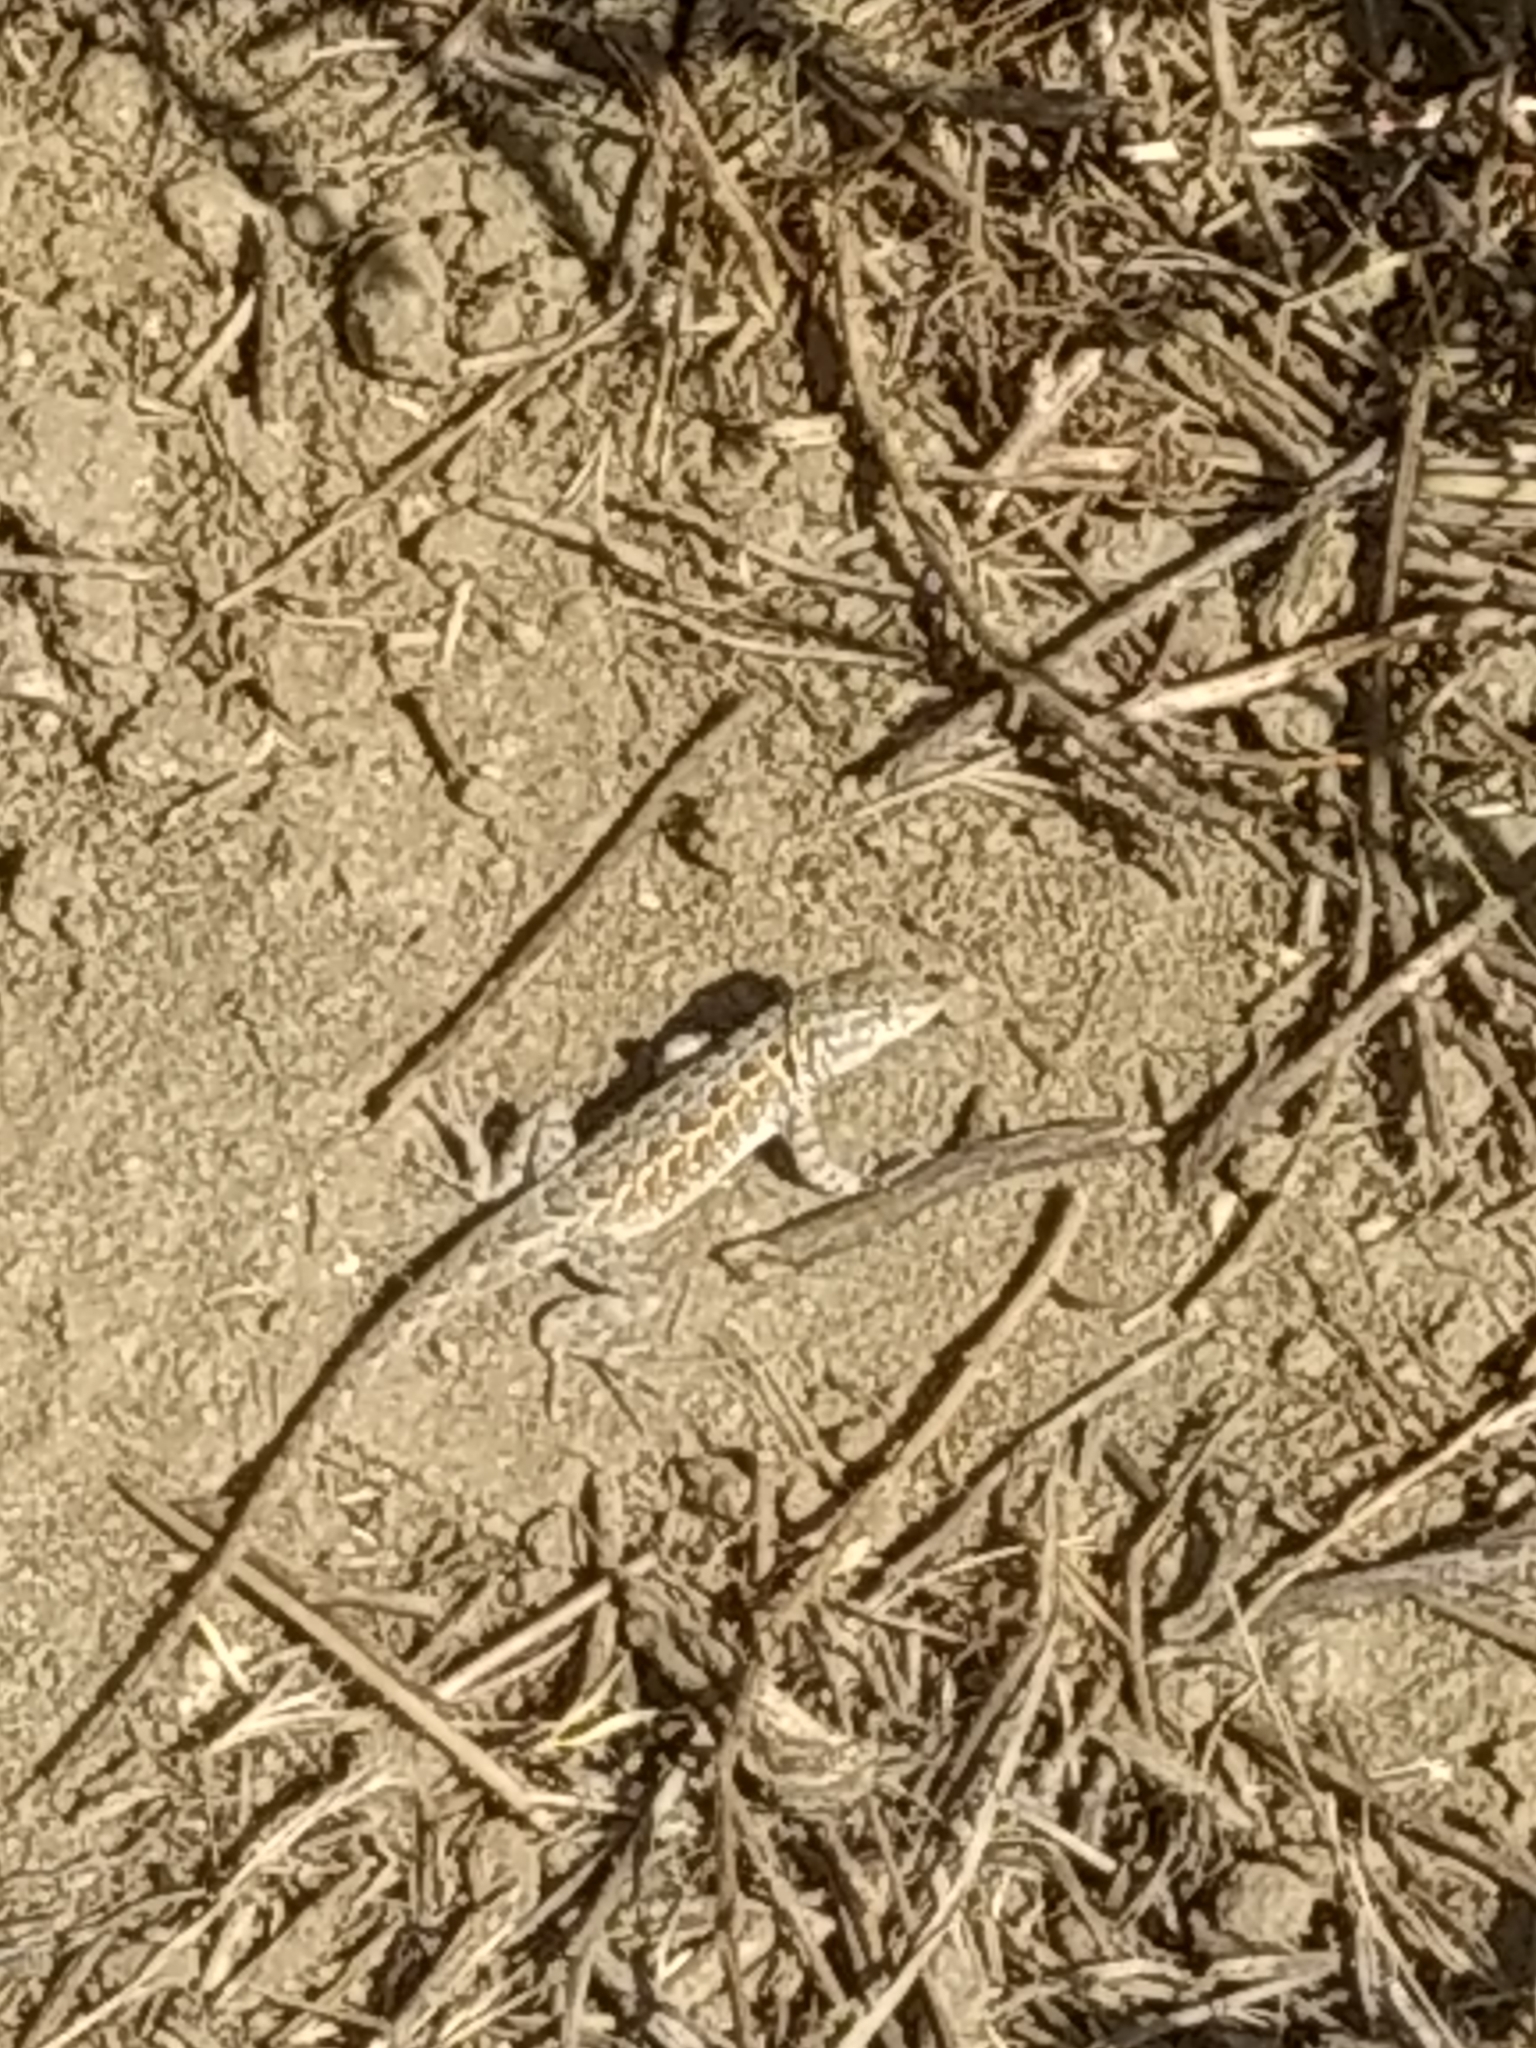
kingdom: Animalia
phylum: Chordata
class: Squamata
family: Phrynosomatidae
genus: Uta
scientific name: Uta stansburiana
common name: Side-blotched lizard
